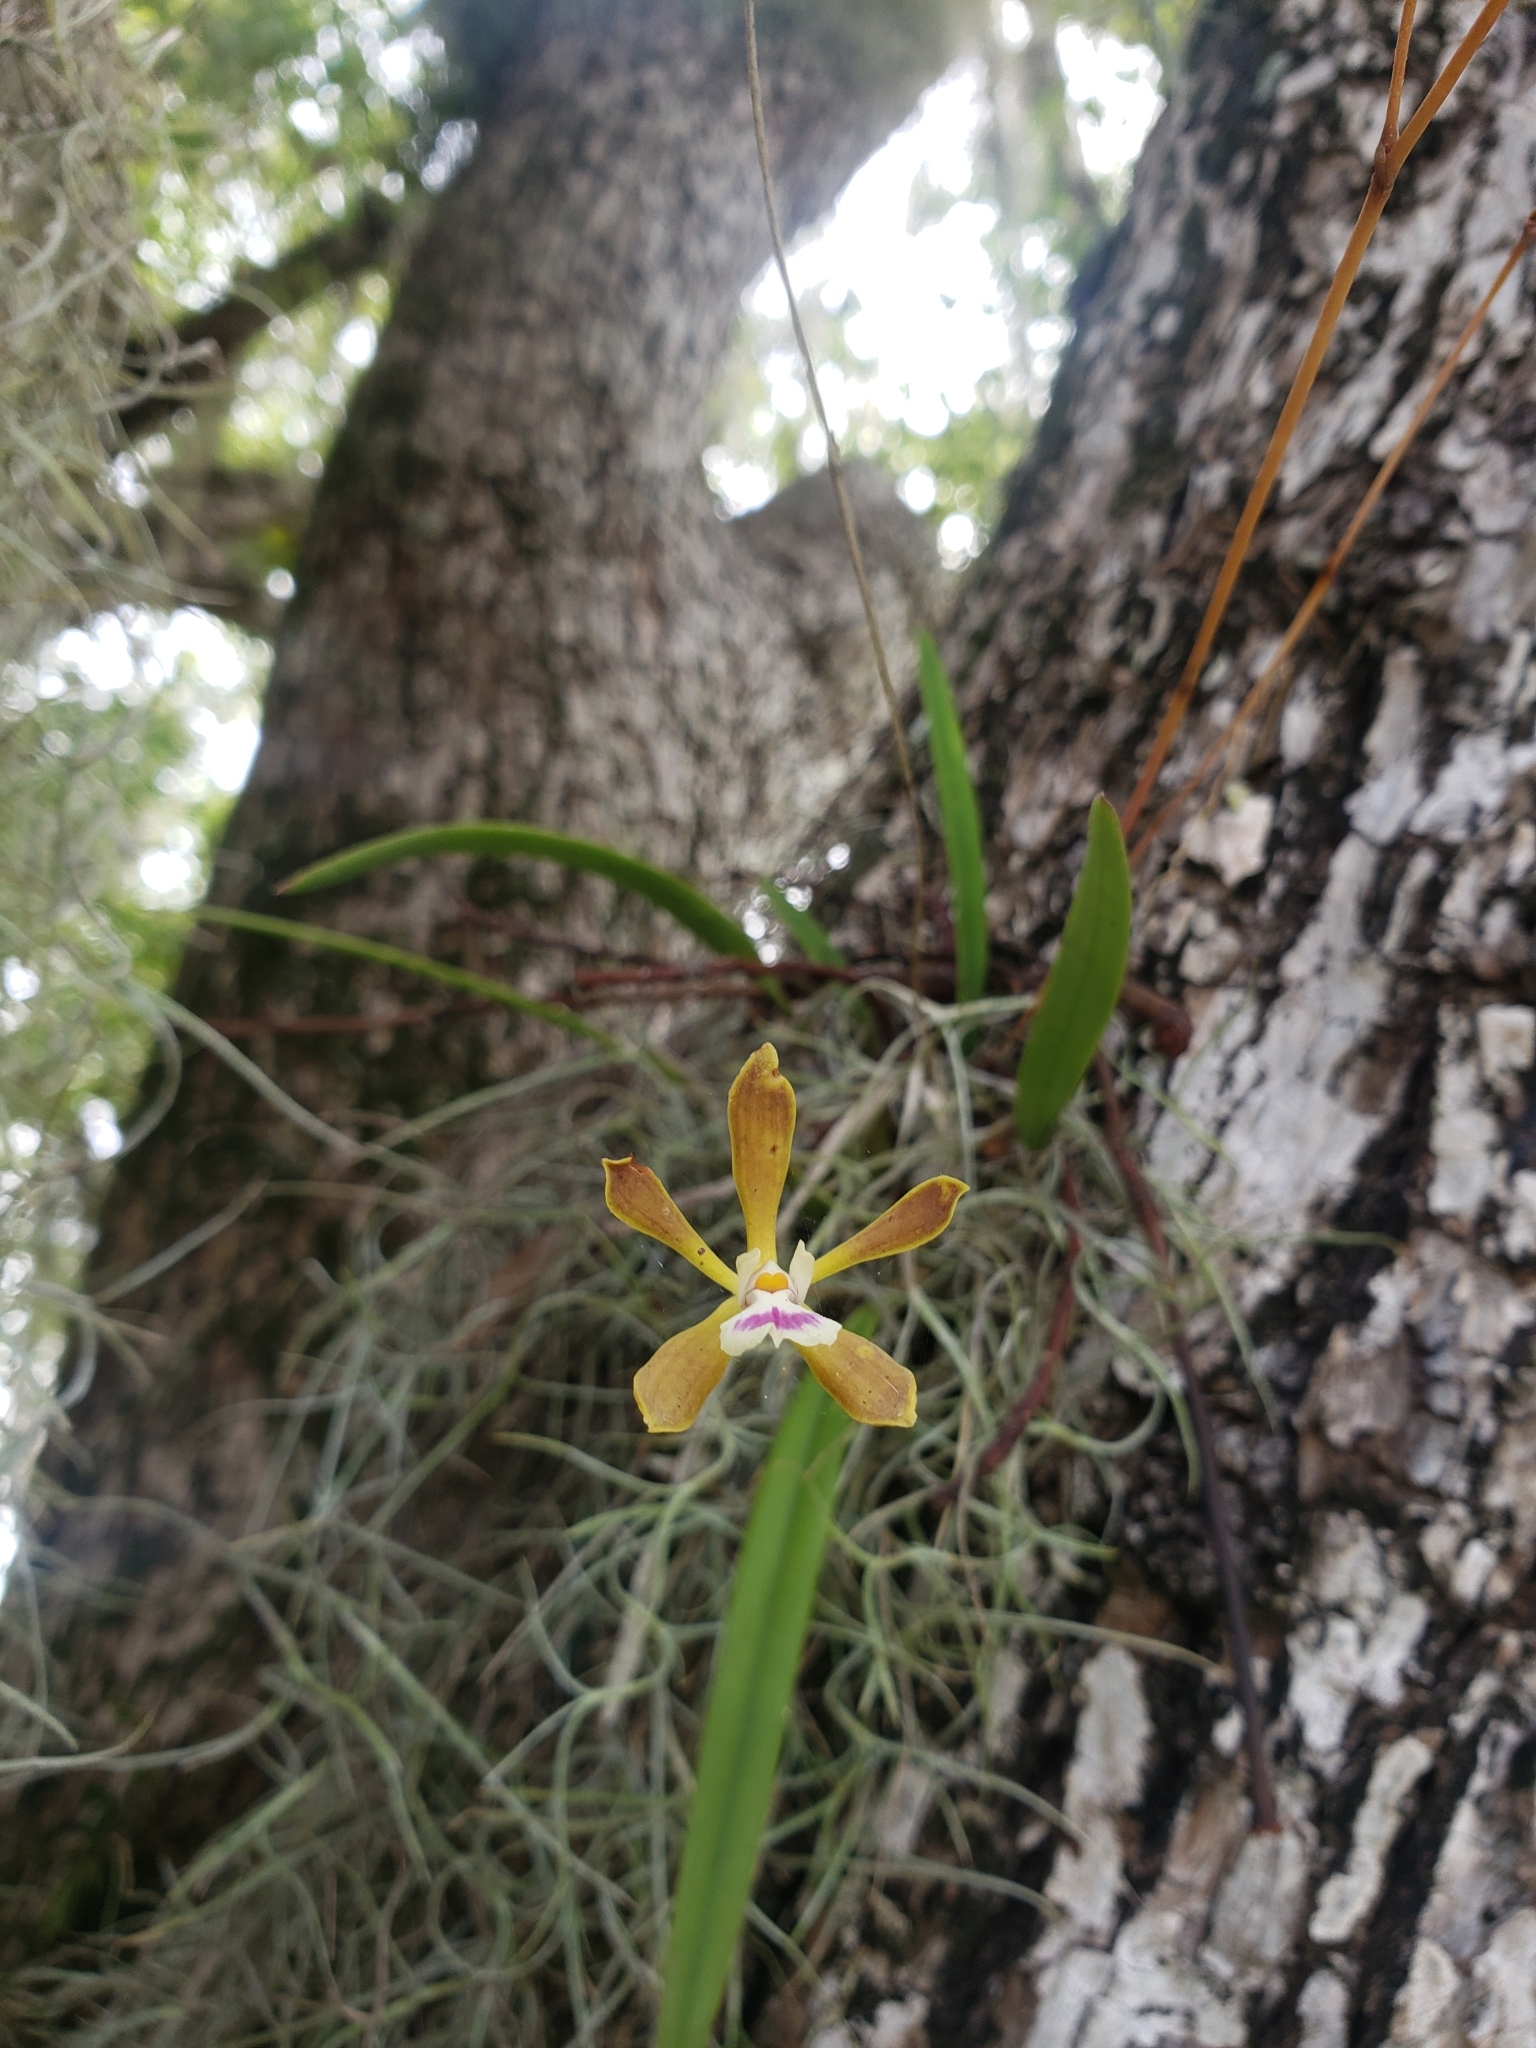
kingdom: Plantae
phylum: Tracheophyta
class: Liliopsida
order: Asparagales
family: Orchidaceae
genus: Encyclia
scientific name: Encyclia tampensis
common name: Florida butterfly orchid
